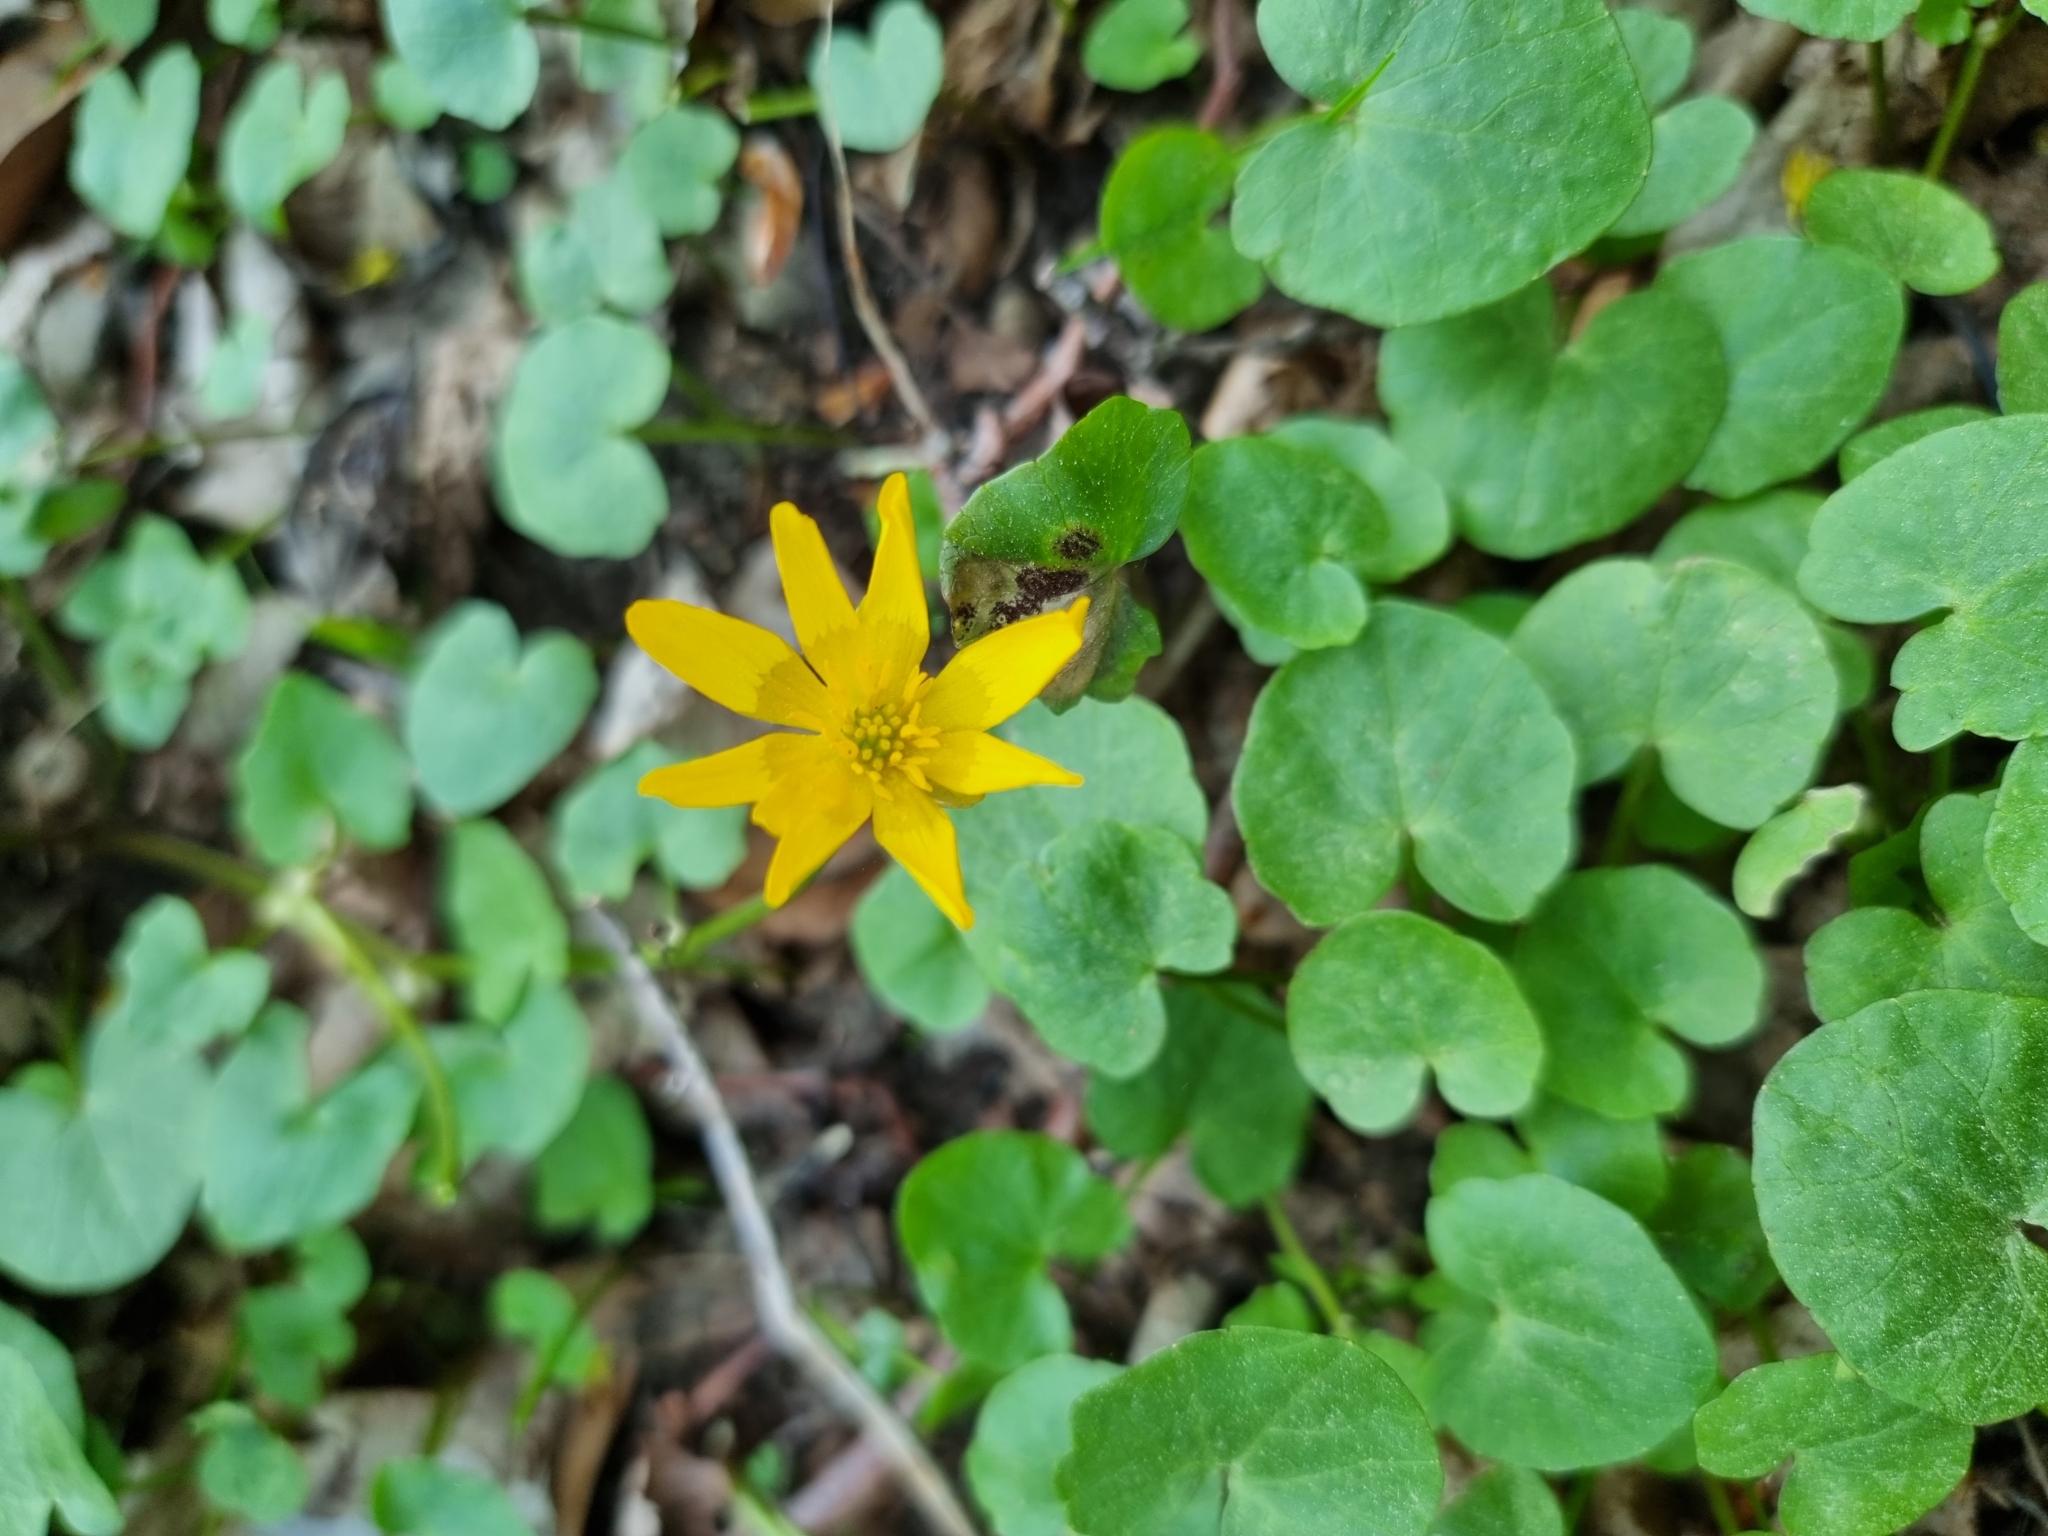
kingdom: Plantae
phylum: Tracheophyta
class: Magnoliopsida
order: Ranunculales
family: Ranunculaceae
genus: Ficaria
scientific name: Ficaria verna
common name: Lesser celandine
